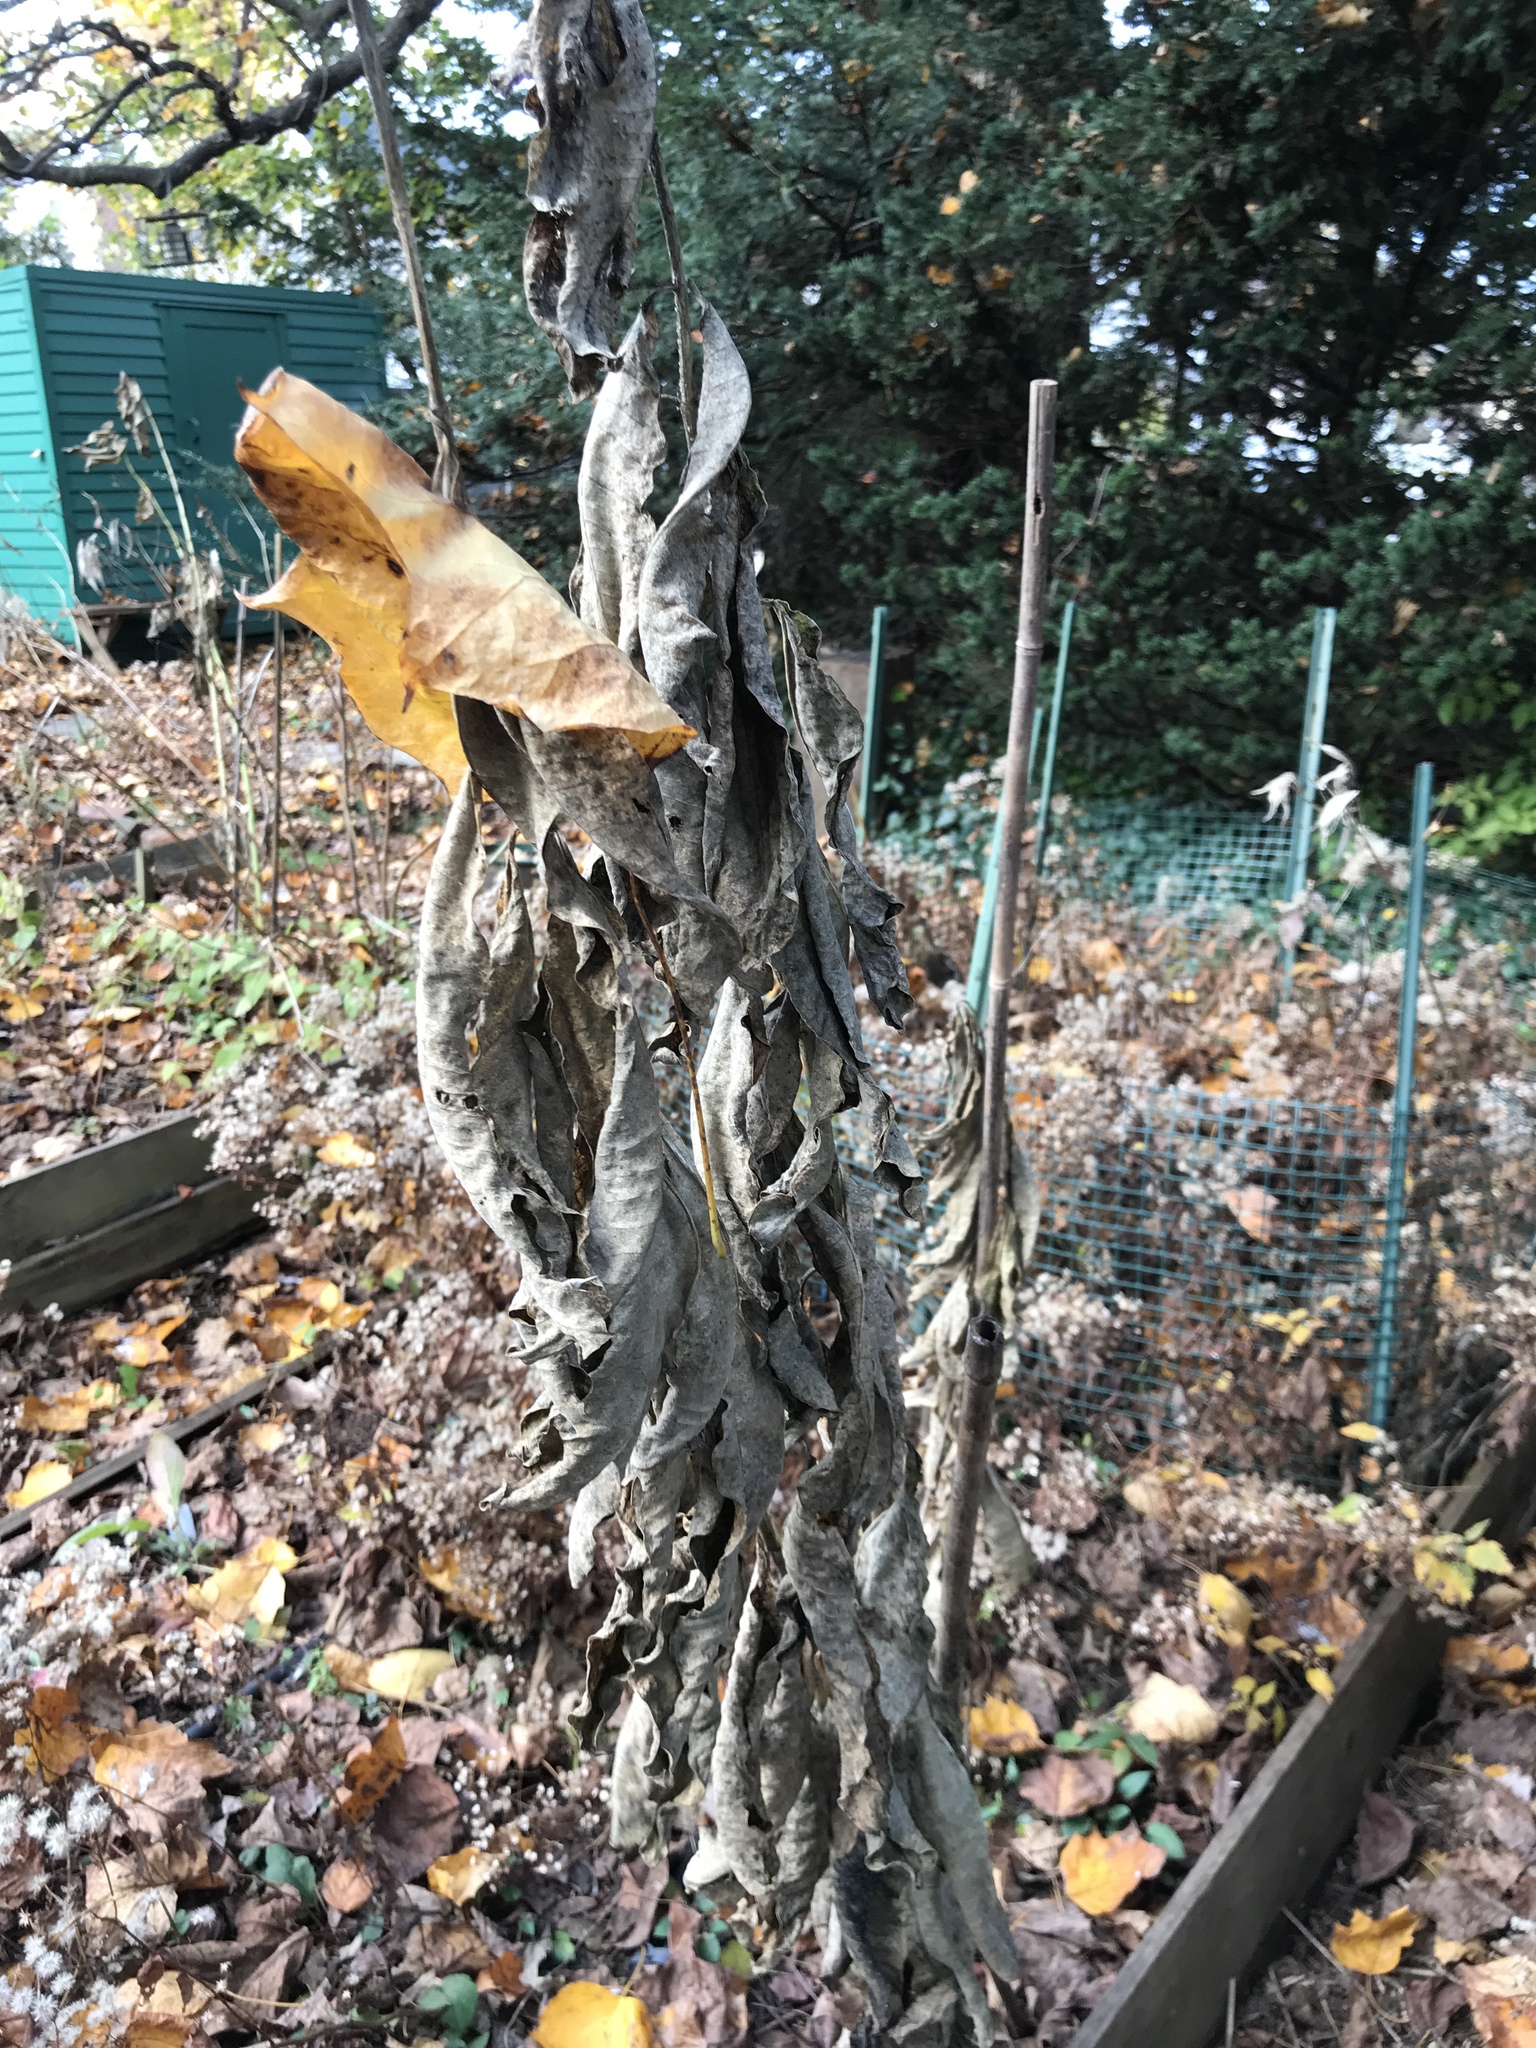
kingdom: Plantae
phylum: Tracheophyta
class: Magnoliopsida
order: Gentianales
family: Apocynaceae
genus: Asclepias
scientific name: Asclepias syriaca
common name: Common milkweed
